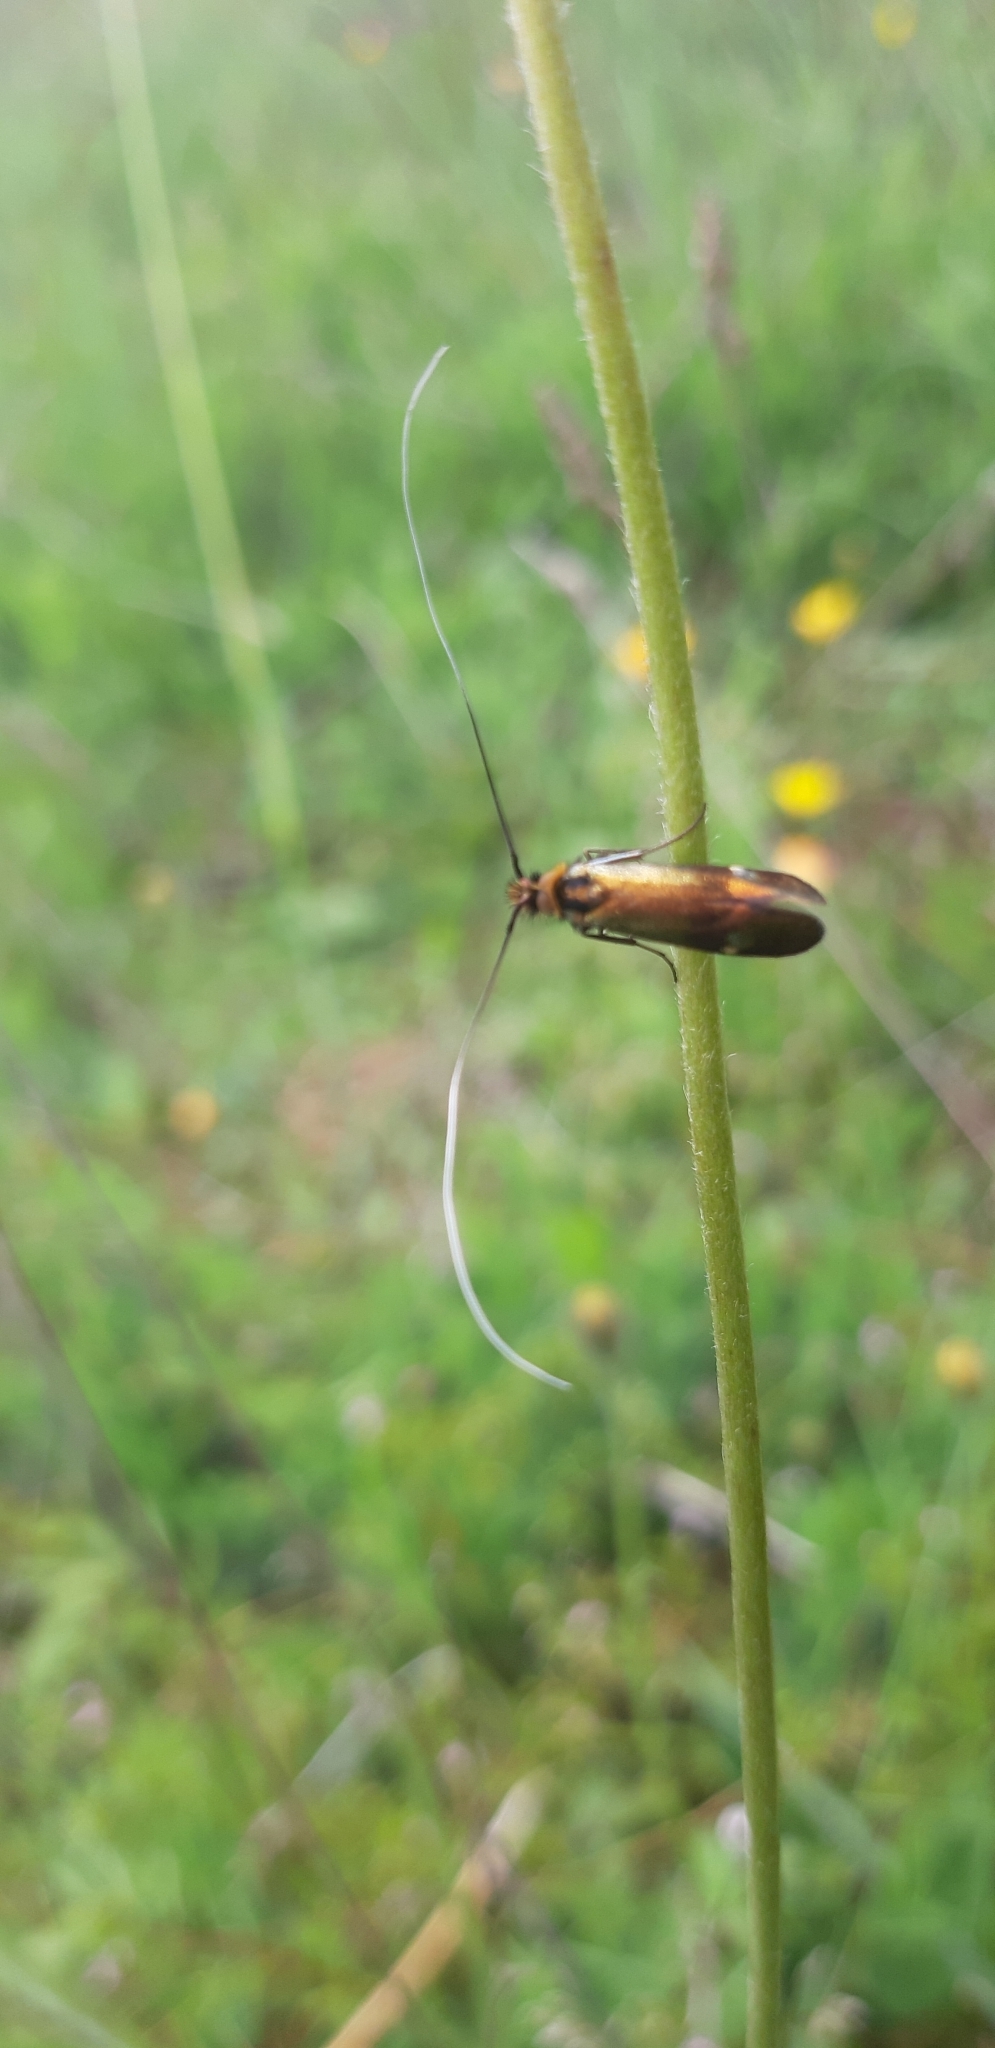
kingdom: Animalia
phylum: Arthropoda
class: Insecta
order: Lepidoptera
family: Adelidae
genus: Nemophora
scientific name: Nemophora raddaella
